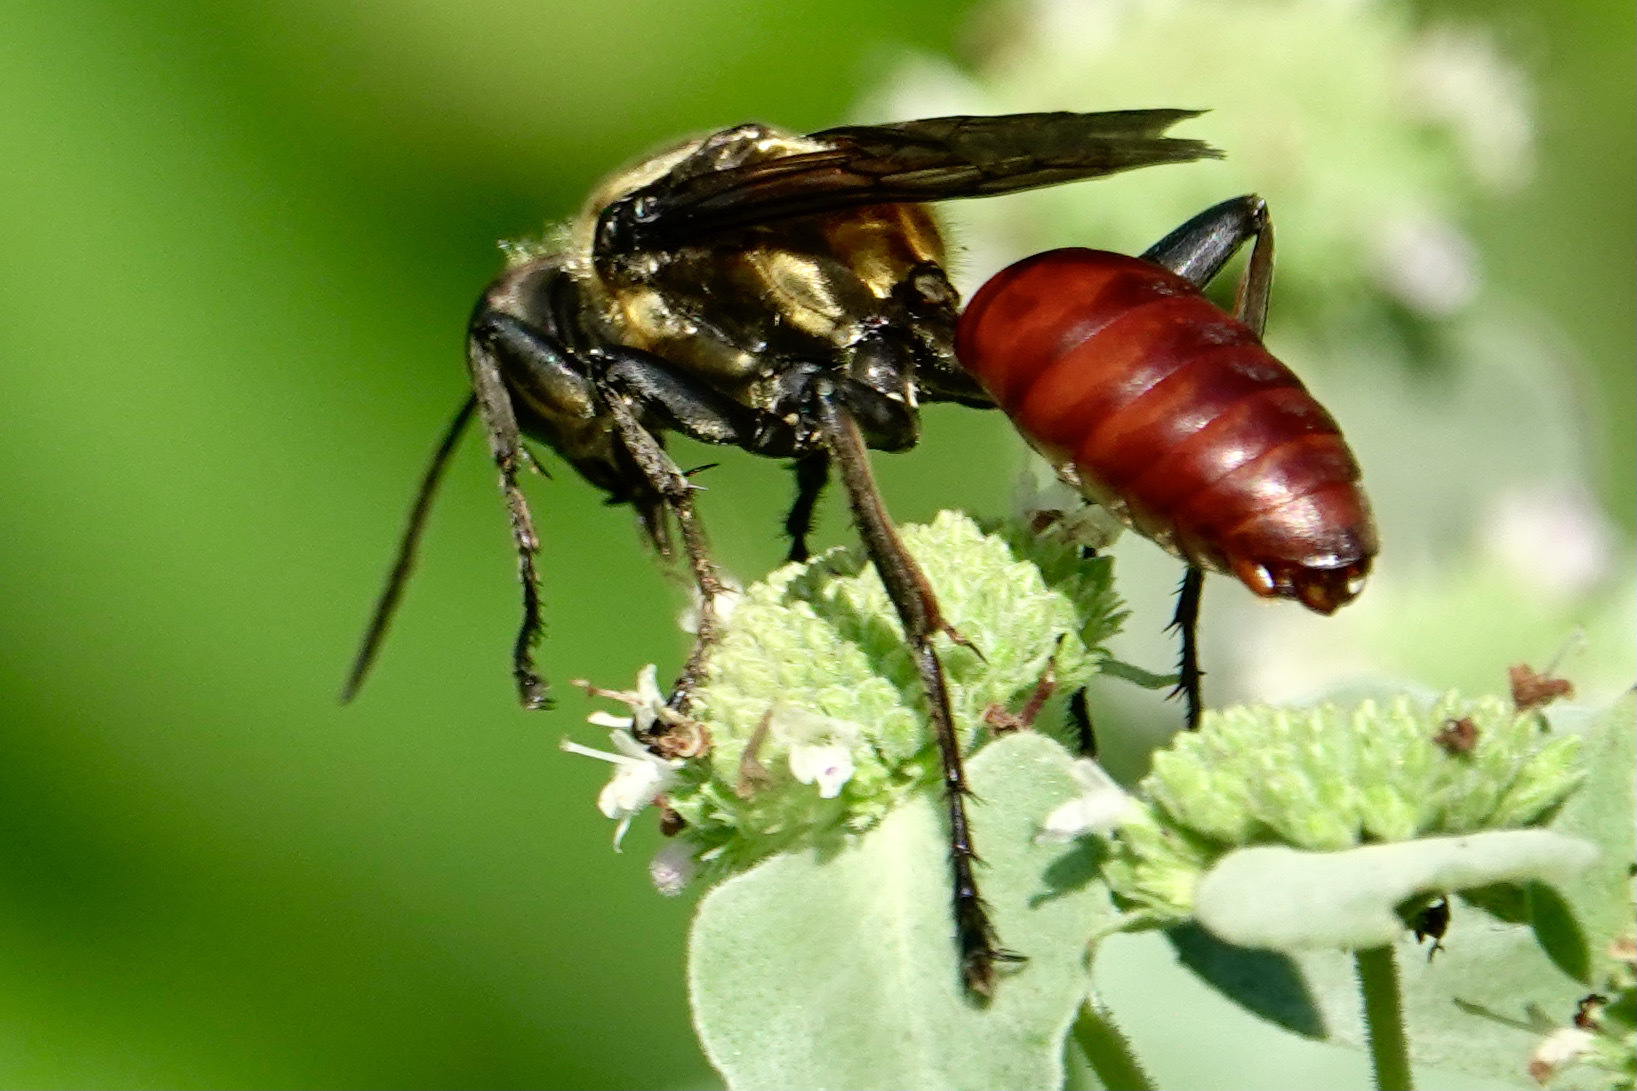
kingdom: Animalia
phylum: Arthropoda
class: Insecta
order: Hymenoptera
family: Sphecidae
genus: Sphex
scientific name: Sphex habenus
